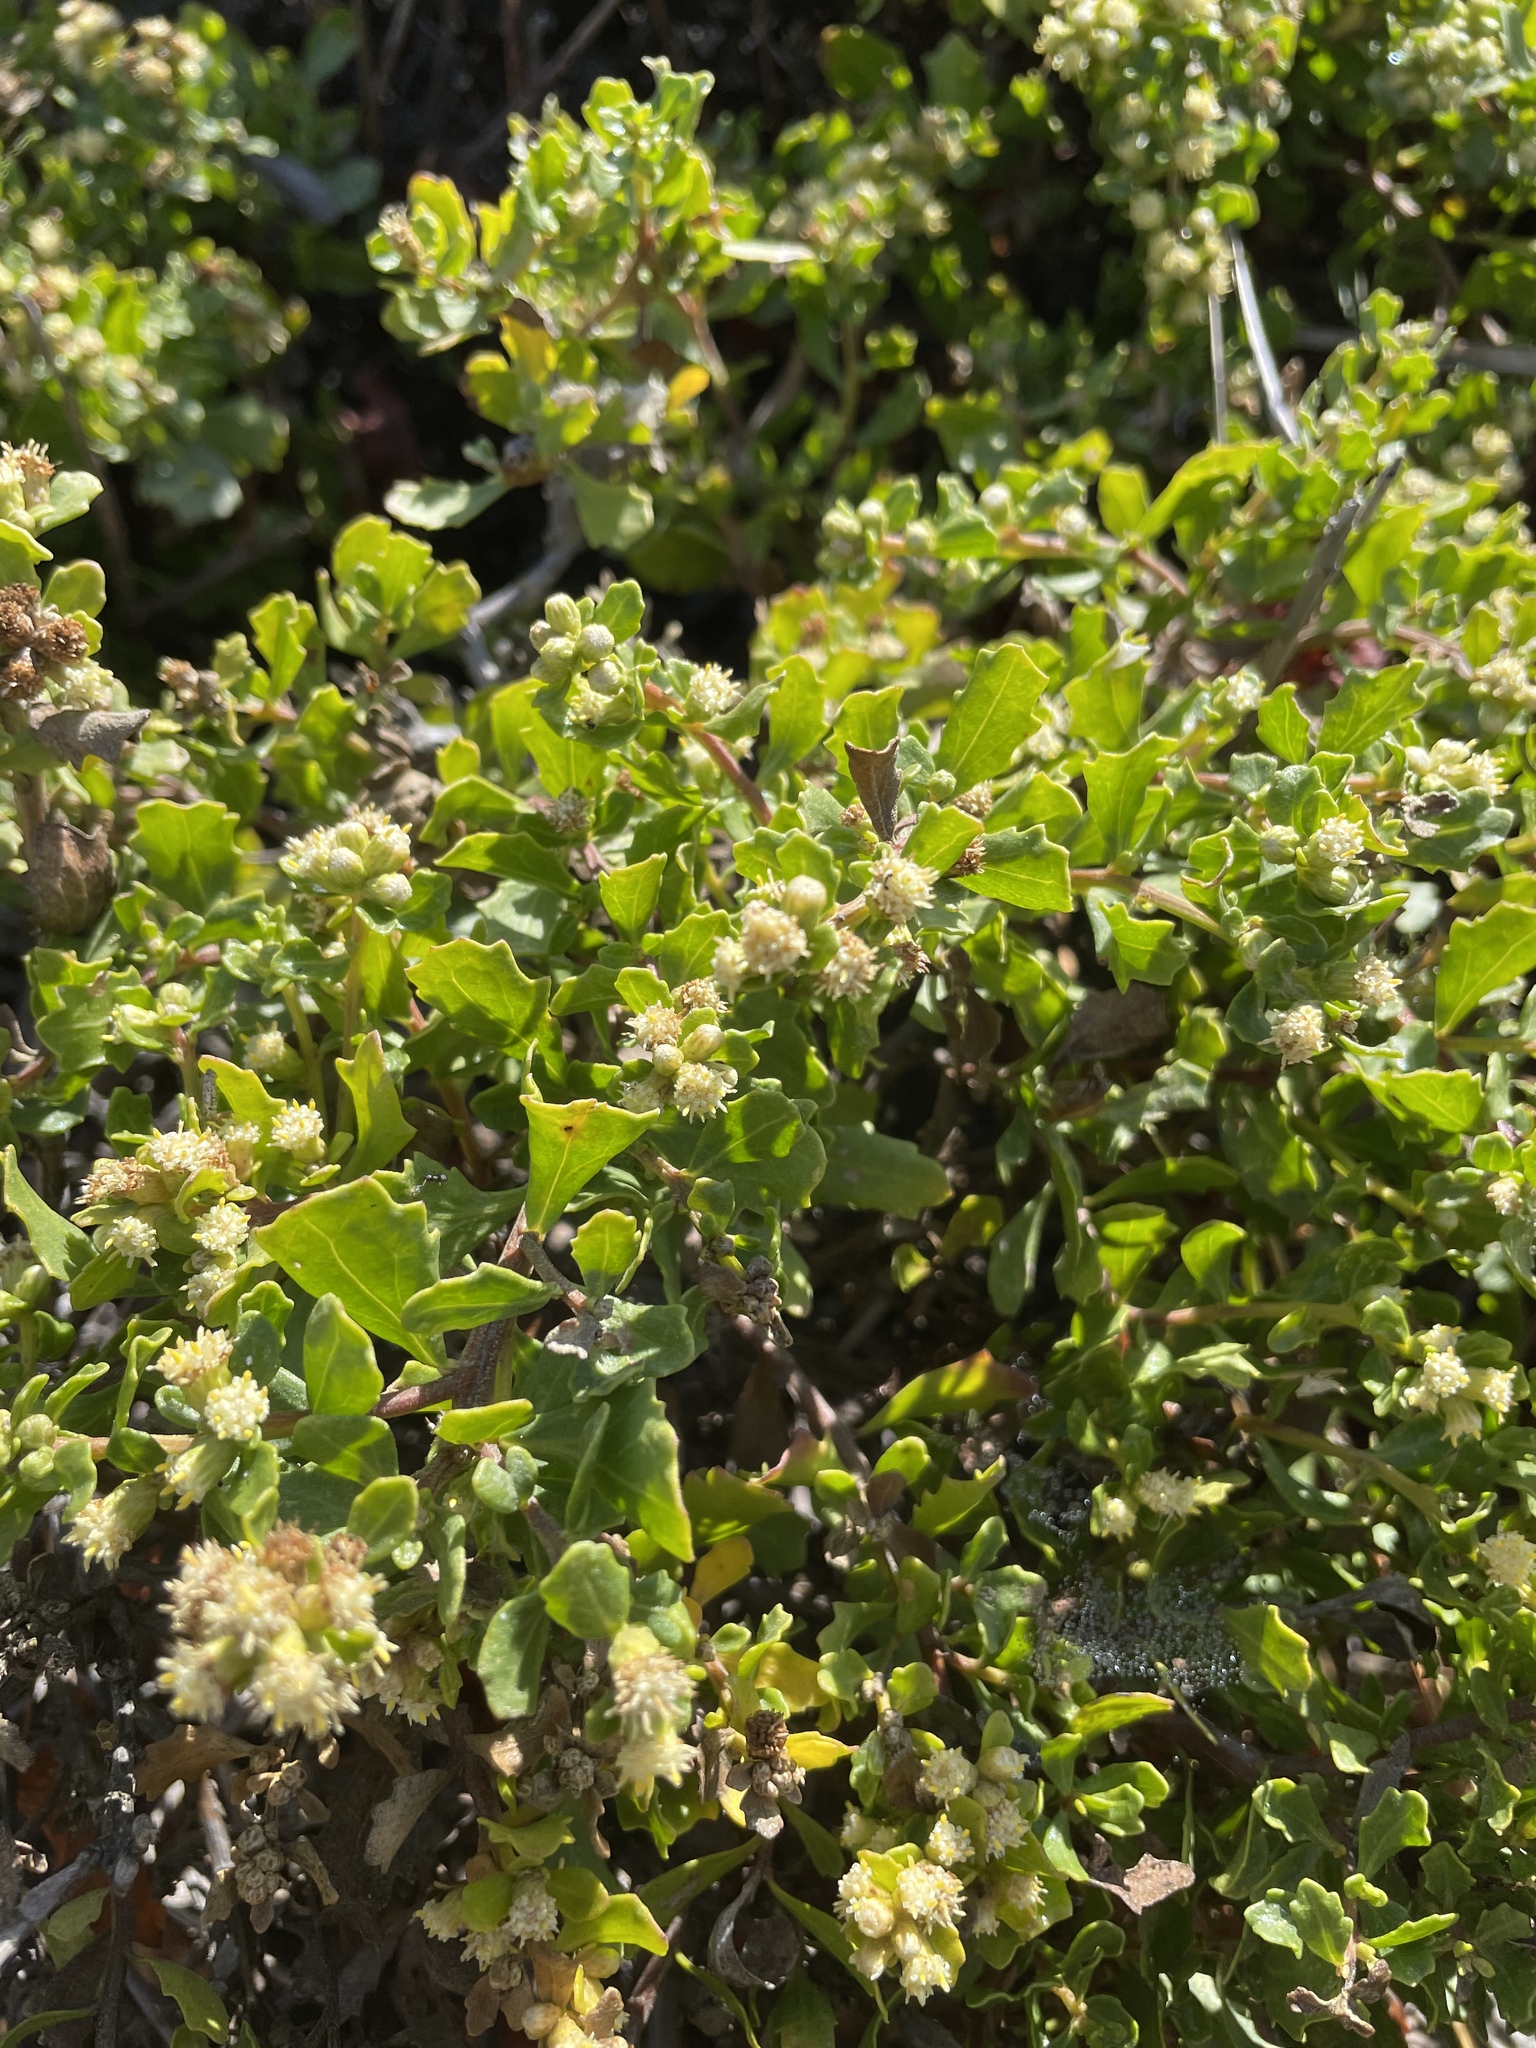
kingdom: Plantae
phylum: Tracheophyta
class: Magnoliopsida
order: Asterales
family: Asteraceae
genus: Baccharis
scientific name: Baccharis pilularis
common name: Coyotebrush
